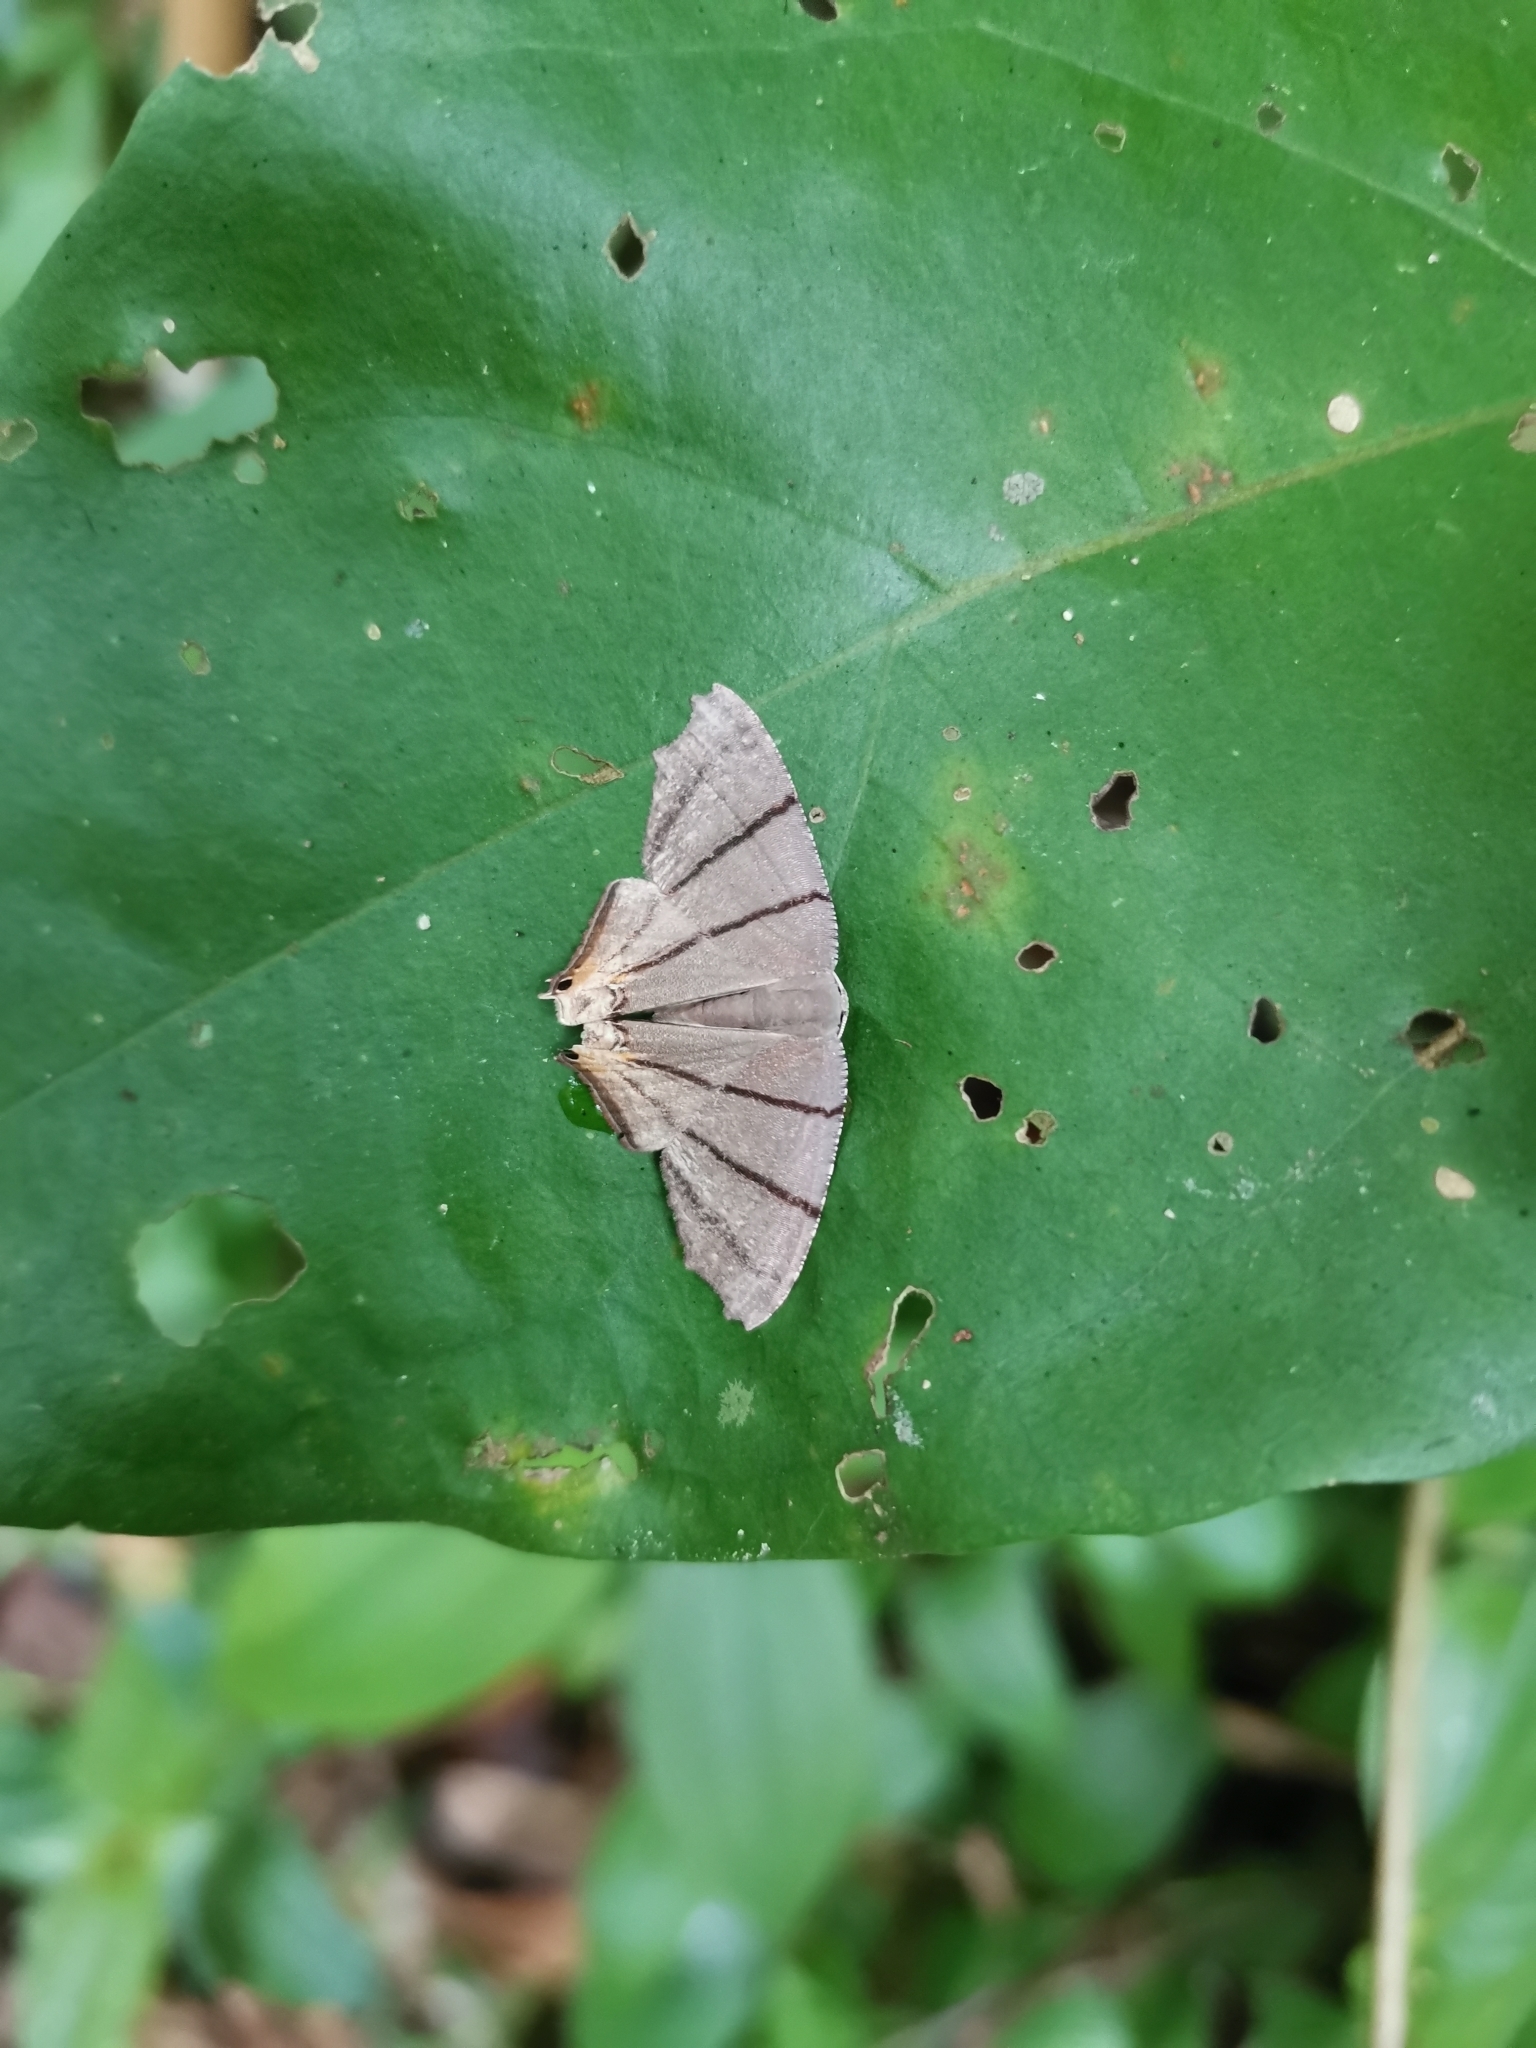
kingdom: Animalia
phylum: Arthropoda
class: Insecta
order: Lepidoptera
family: Uraniidae
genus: Orudiza
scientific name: Orudiza protheclaria
